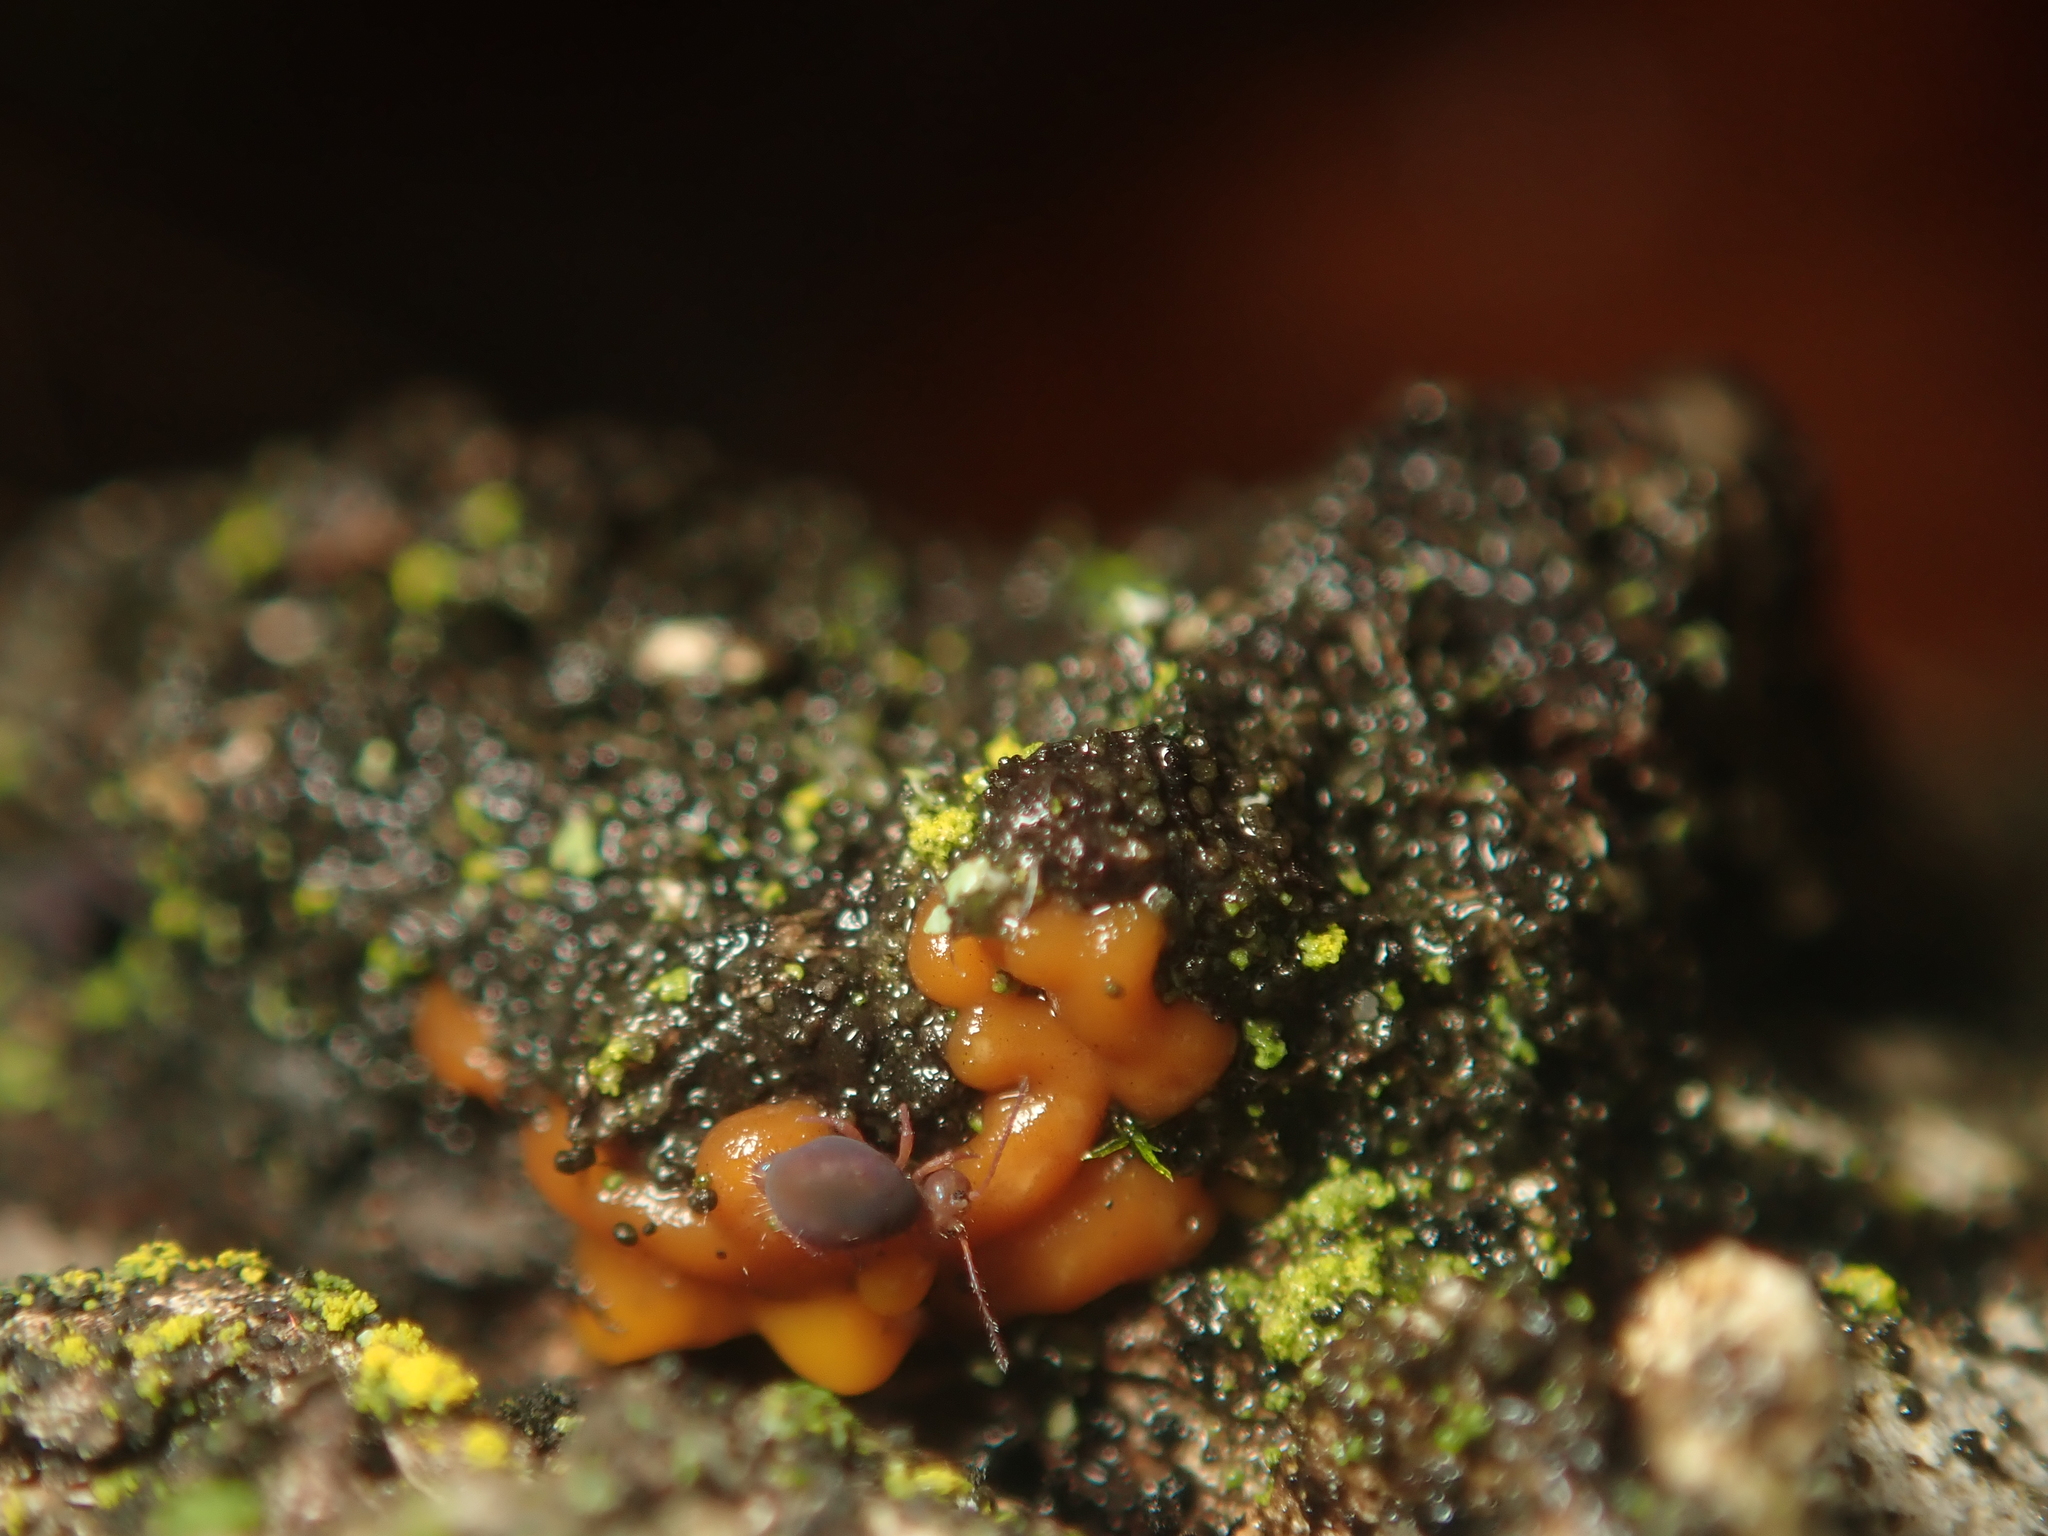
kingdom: Protozoa
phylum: Mycetozoa
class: Myxomycetes
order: Trichiales
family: Arcyriaceae
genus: Hemitrichia
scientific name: Hemitrichia serpula
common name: Pretzel slime mold
